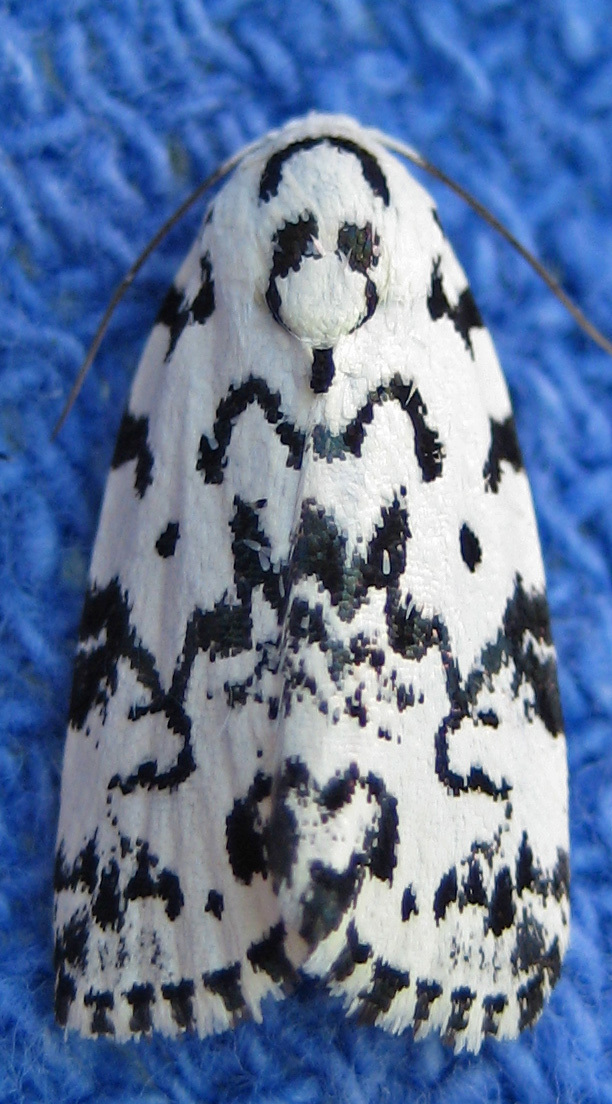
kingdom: Animalia
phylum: Arthropoda
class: Insecta
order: Lepidoptera
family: Noctuidae
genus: Polygrammate
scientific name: Polygrammate hebraeicum
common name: Hebrew moth
